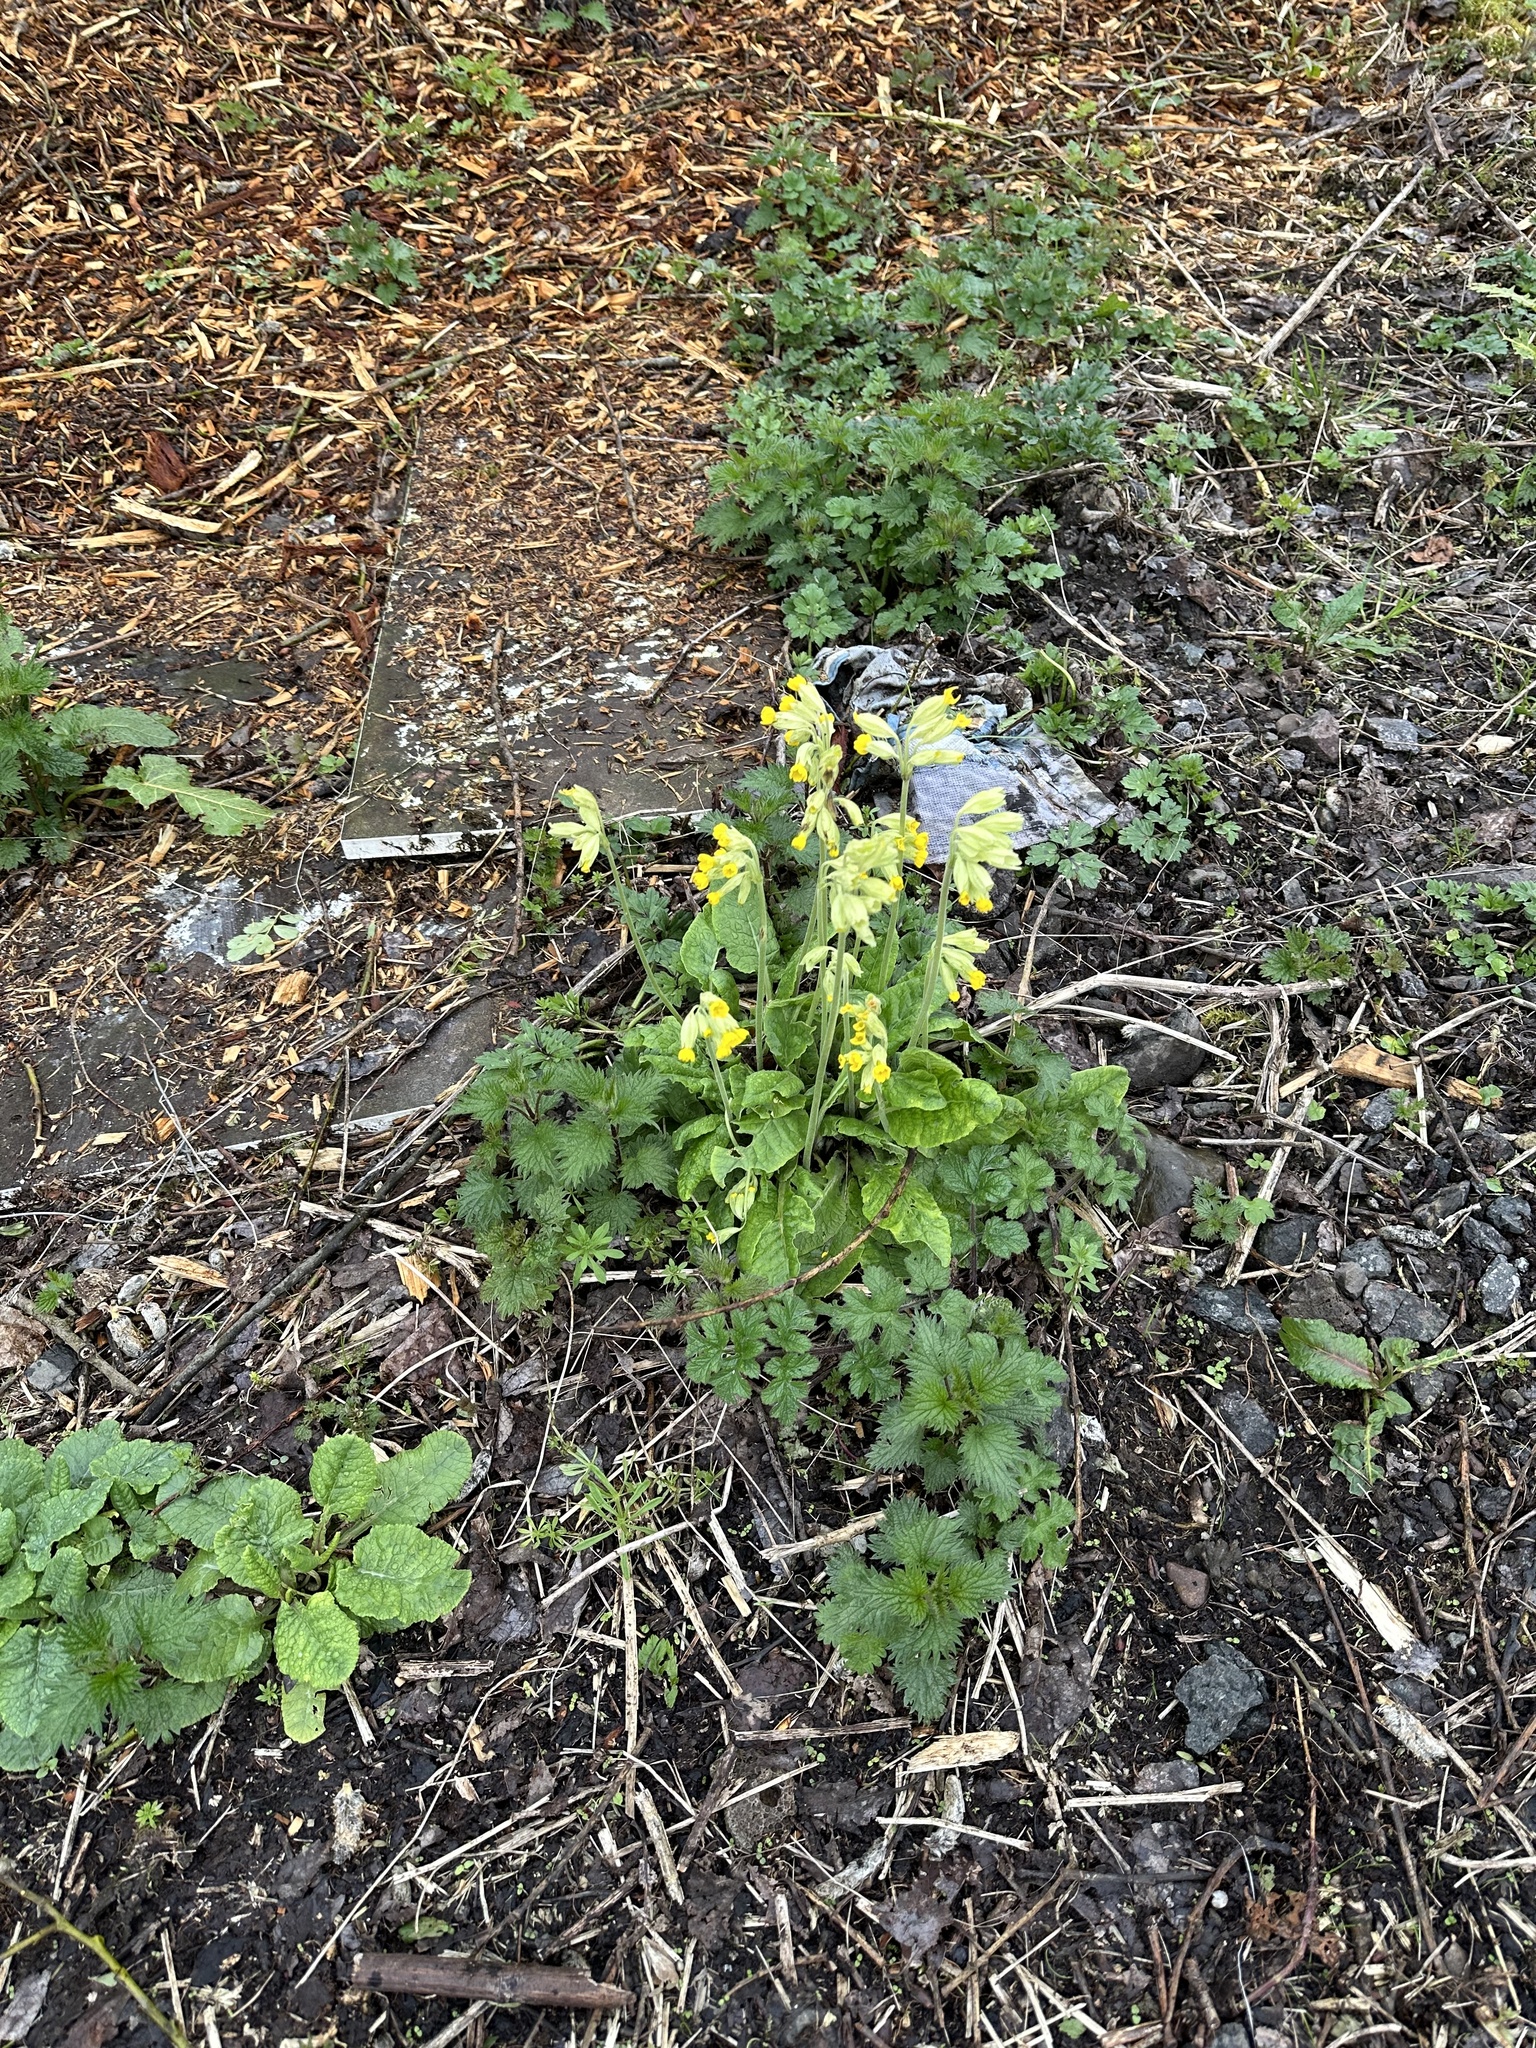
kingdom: Plantae
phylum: Tracheophyta
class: Magnoliopsida
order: Ericales
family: Primulaceae
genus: Primula
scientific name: Primula veris
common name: Cowslip
